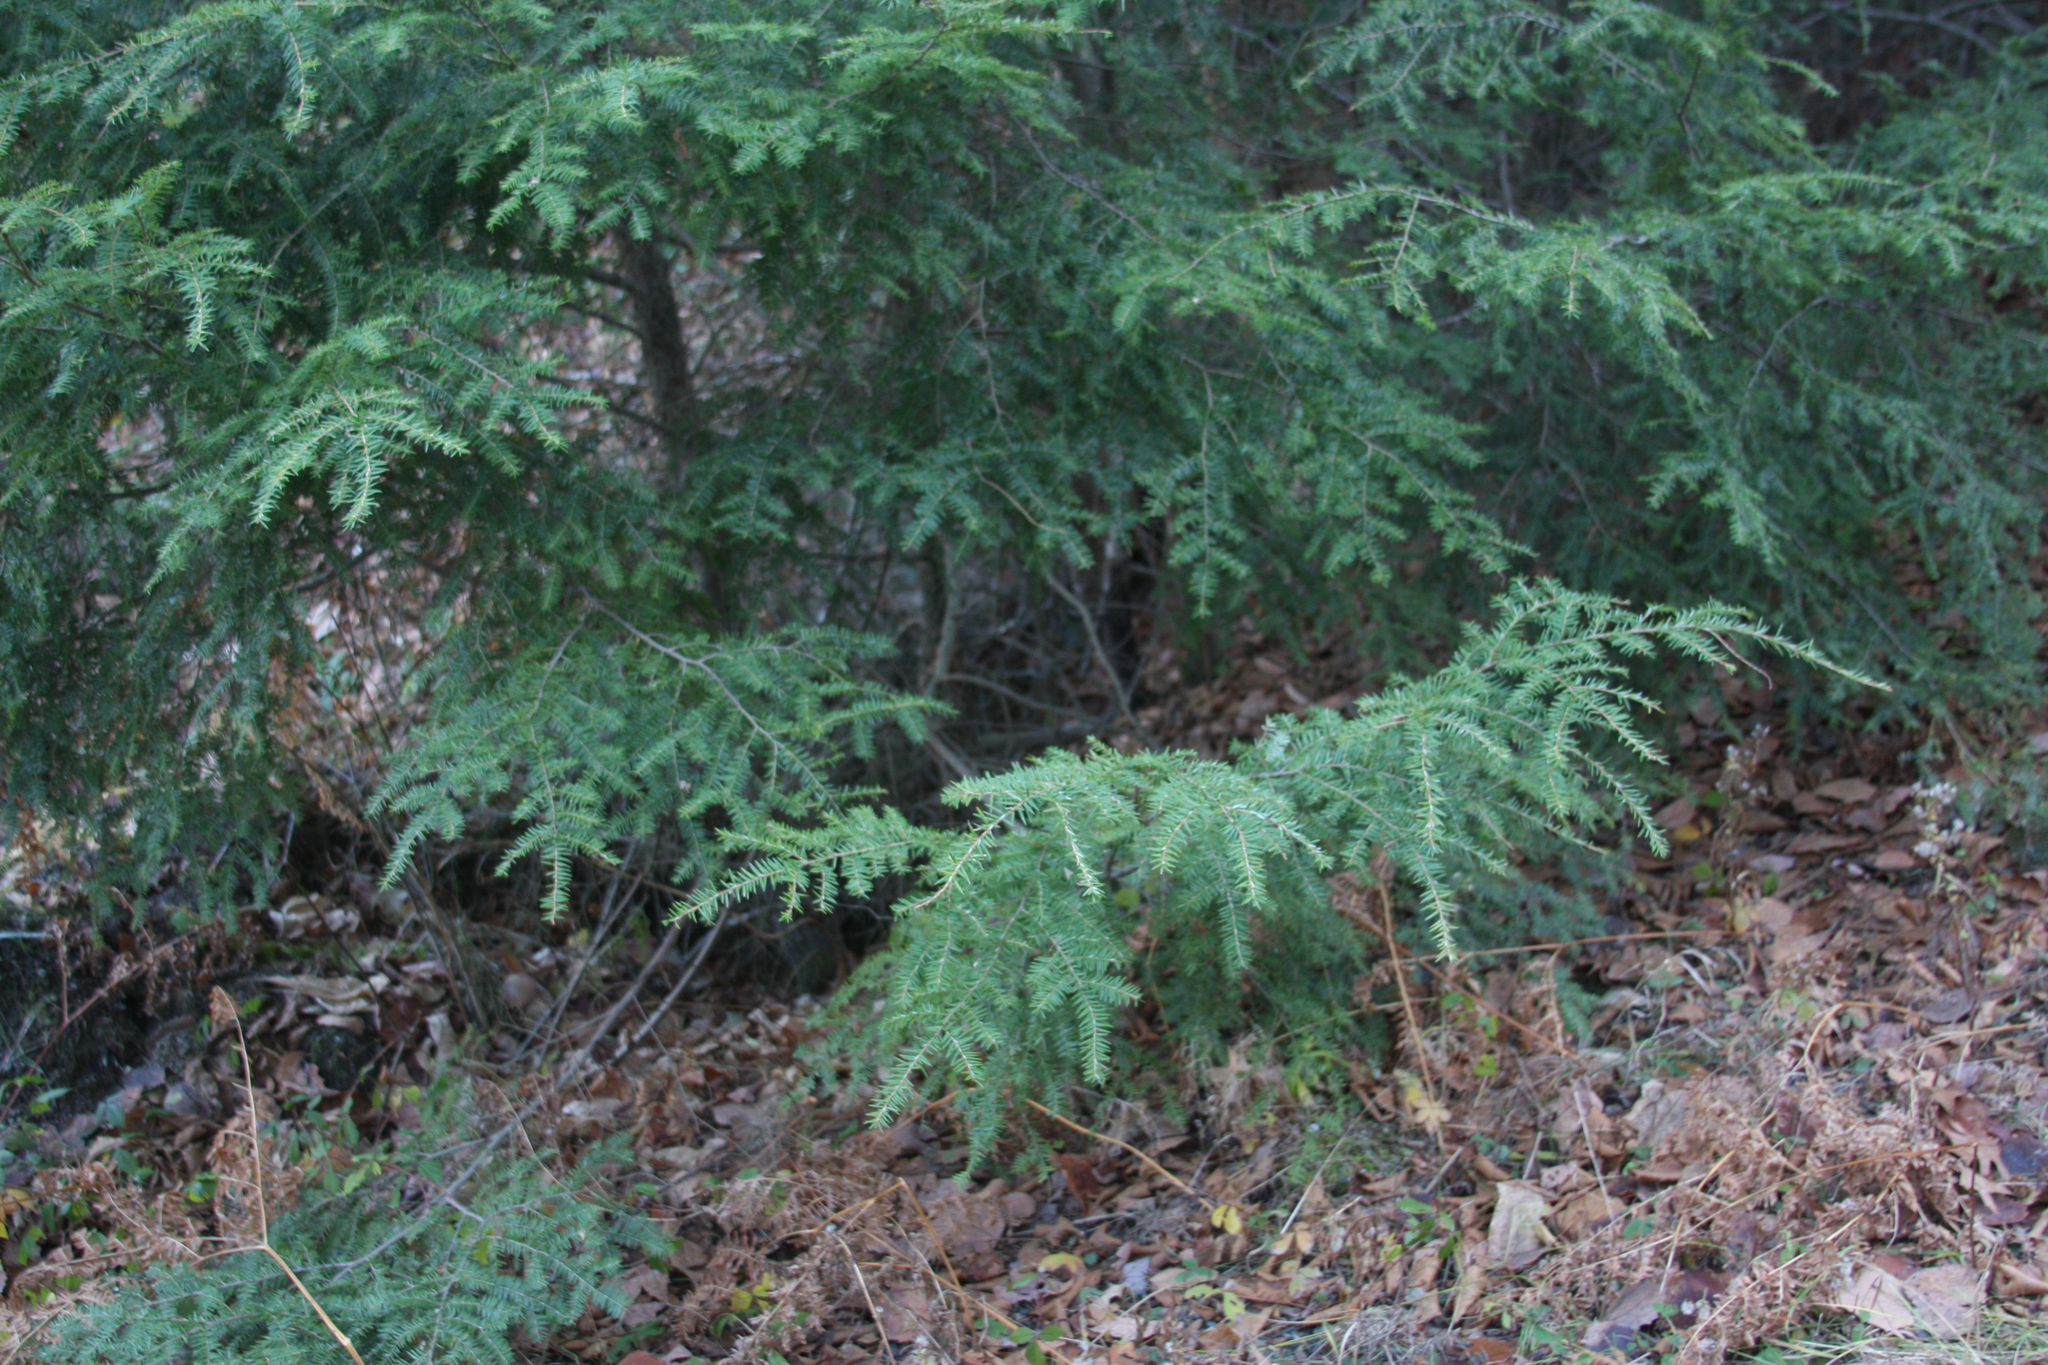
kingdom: Plantae
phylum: Tracheophyta
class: Pinopsida
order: Pinales
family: Pinaceae
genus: Tsuga
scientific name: Tsuga canadensis
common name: Eastern hemlock
